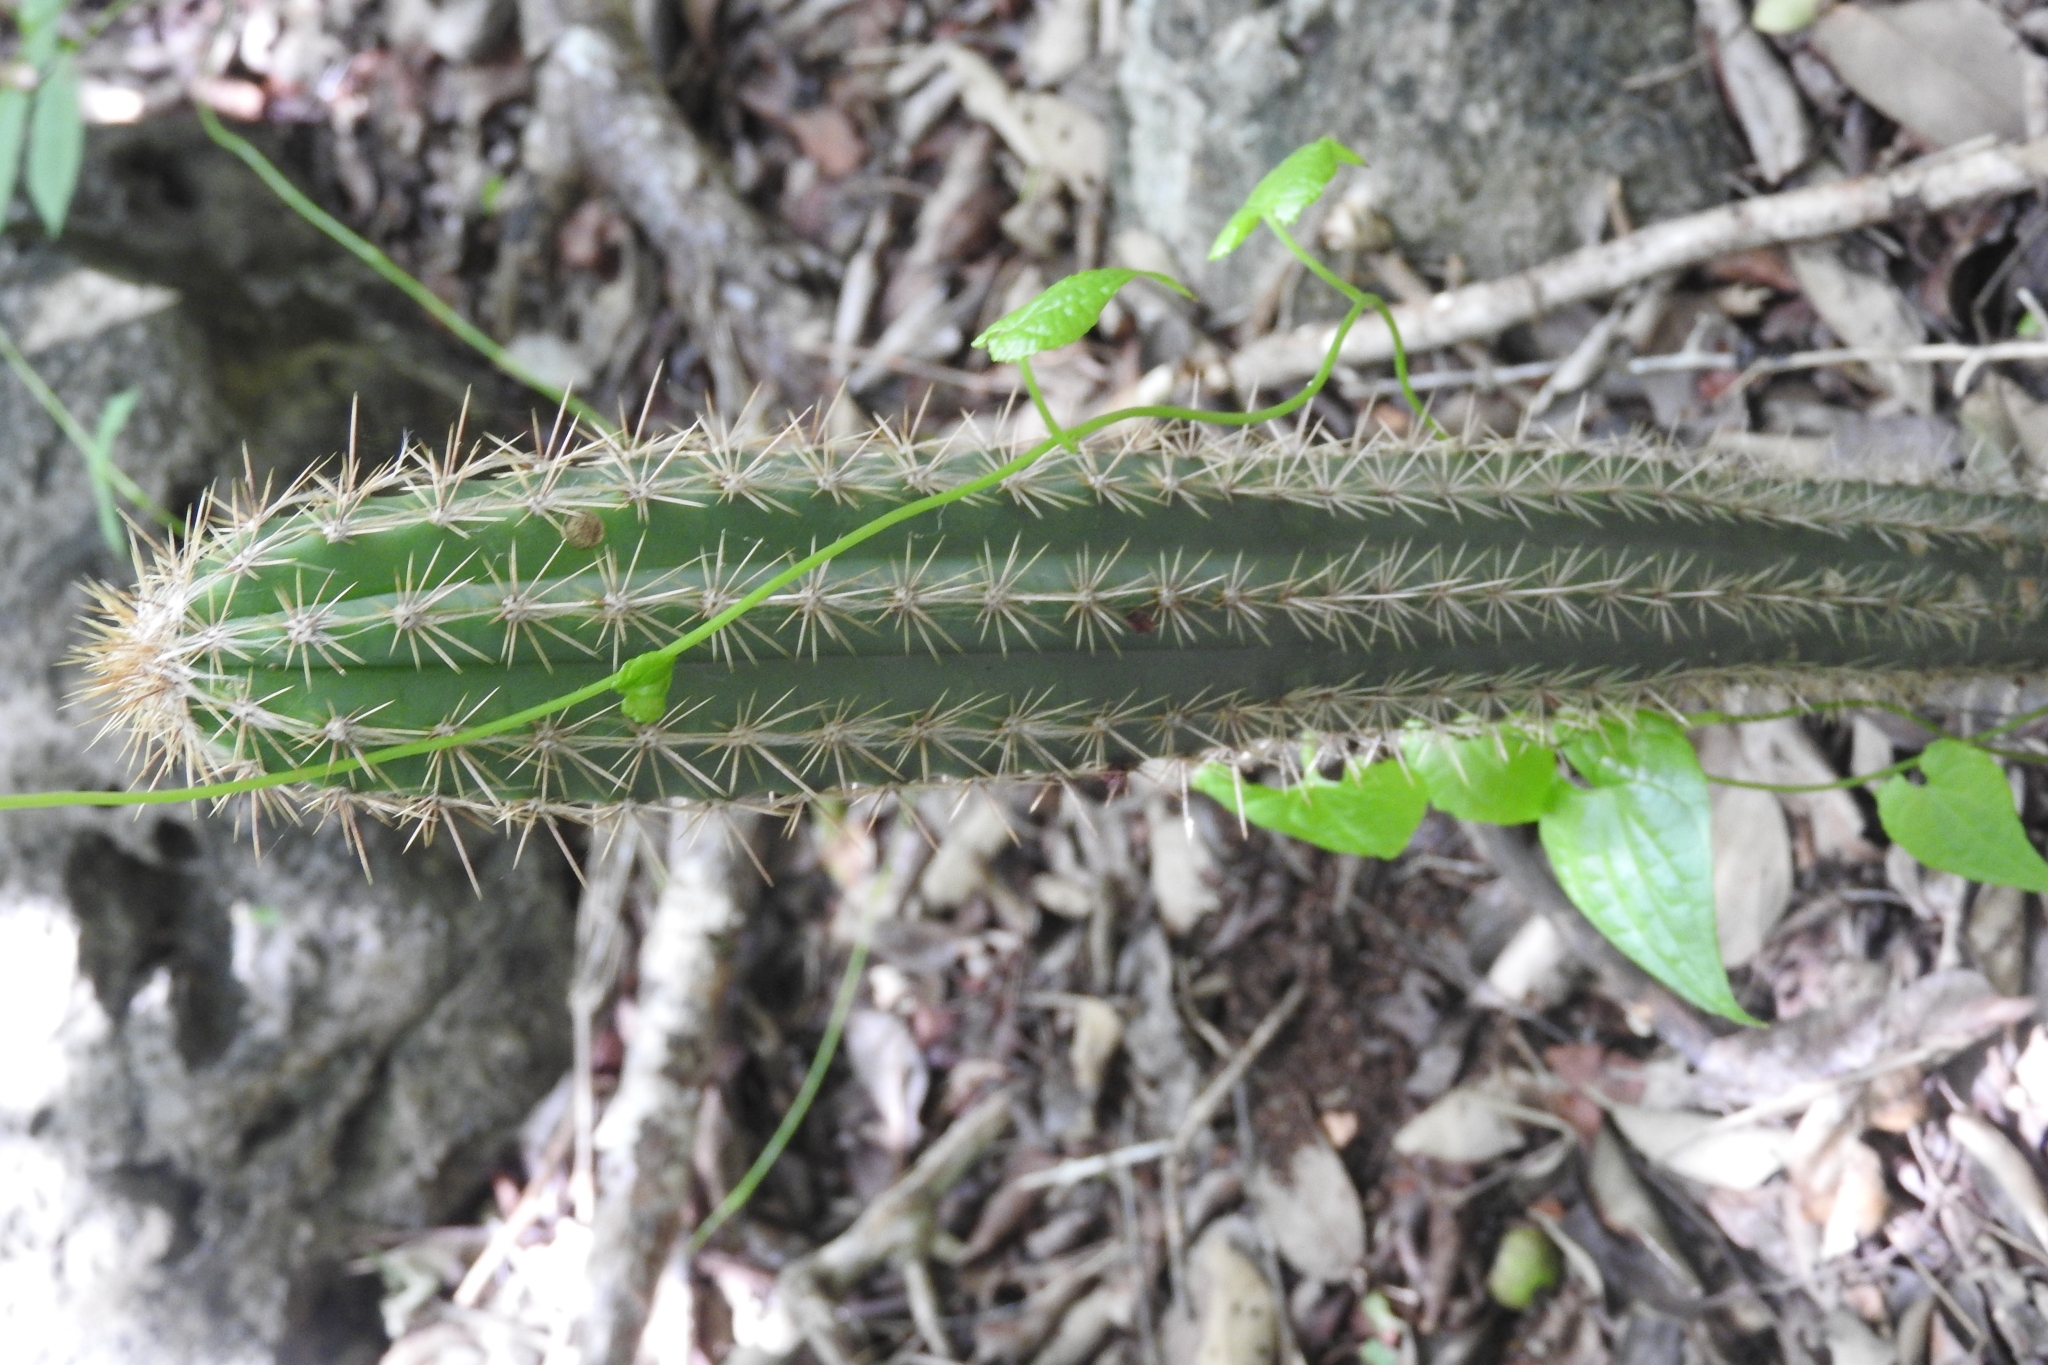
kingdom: Plantae
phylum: Tracheophyta
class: Magnoliopsida
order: Caryophyllales
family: Cactaceae
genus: Pilosocereus
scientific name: Pilosocereus gaumeri
